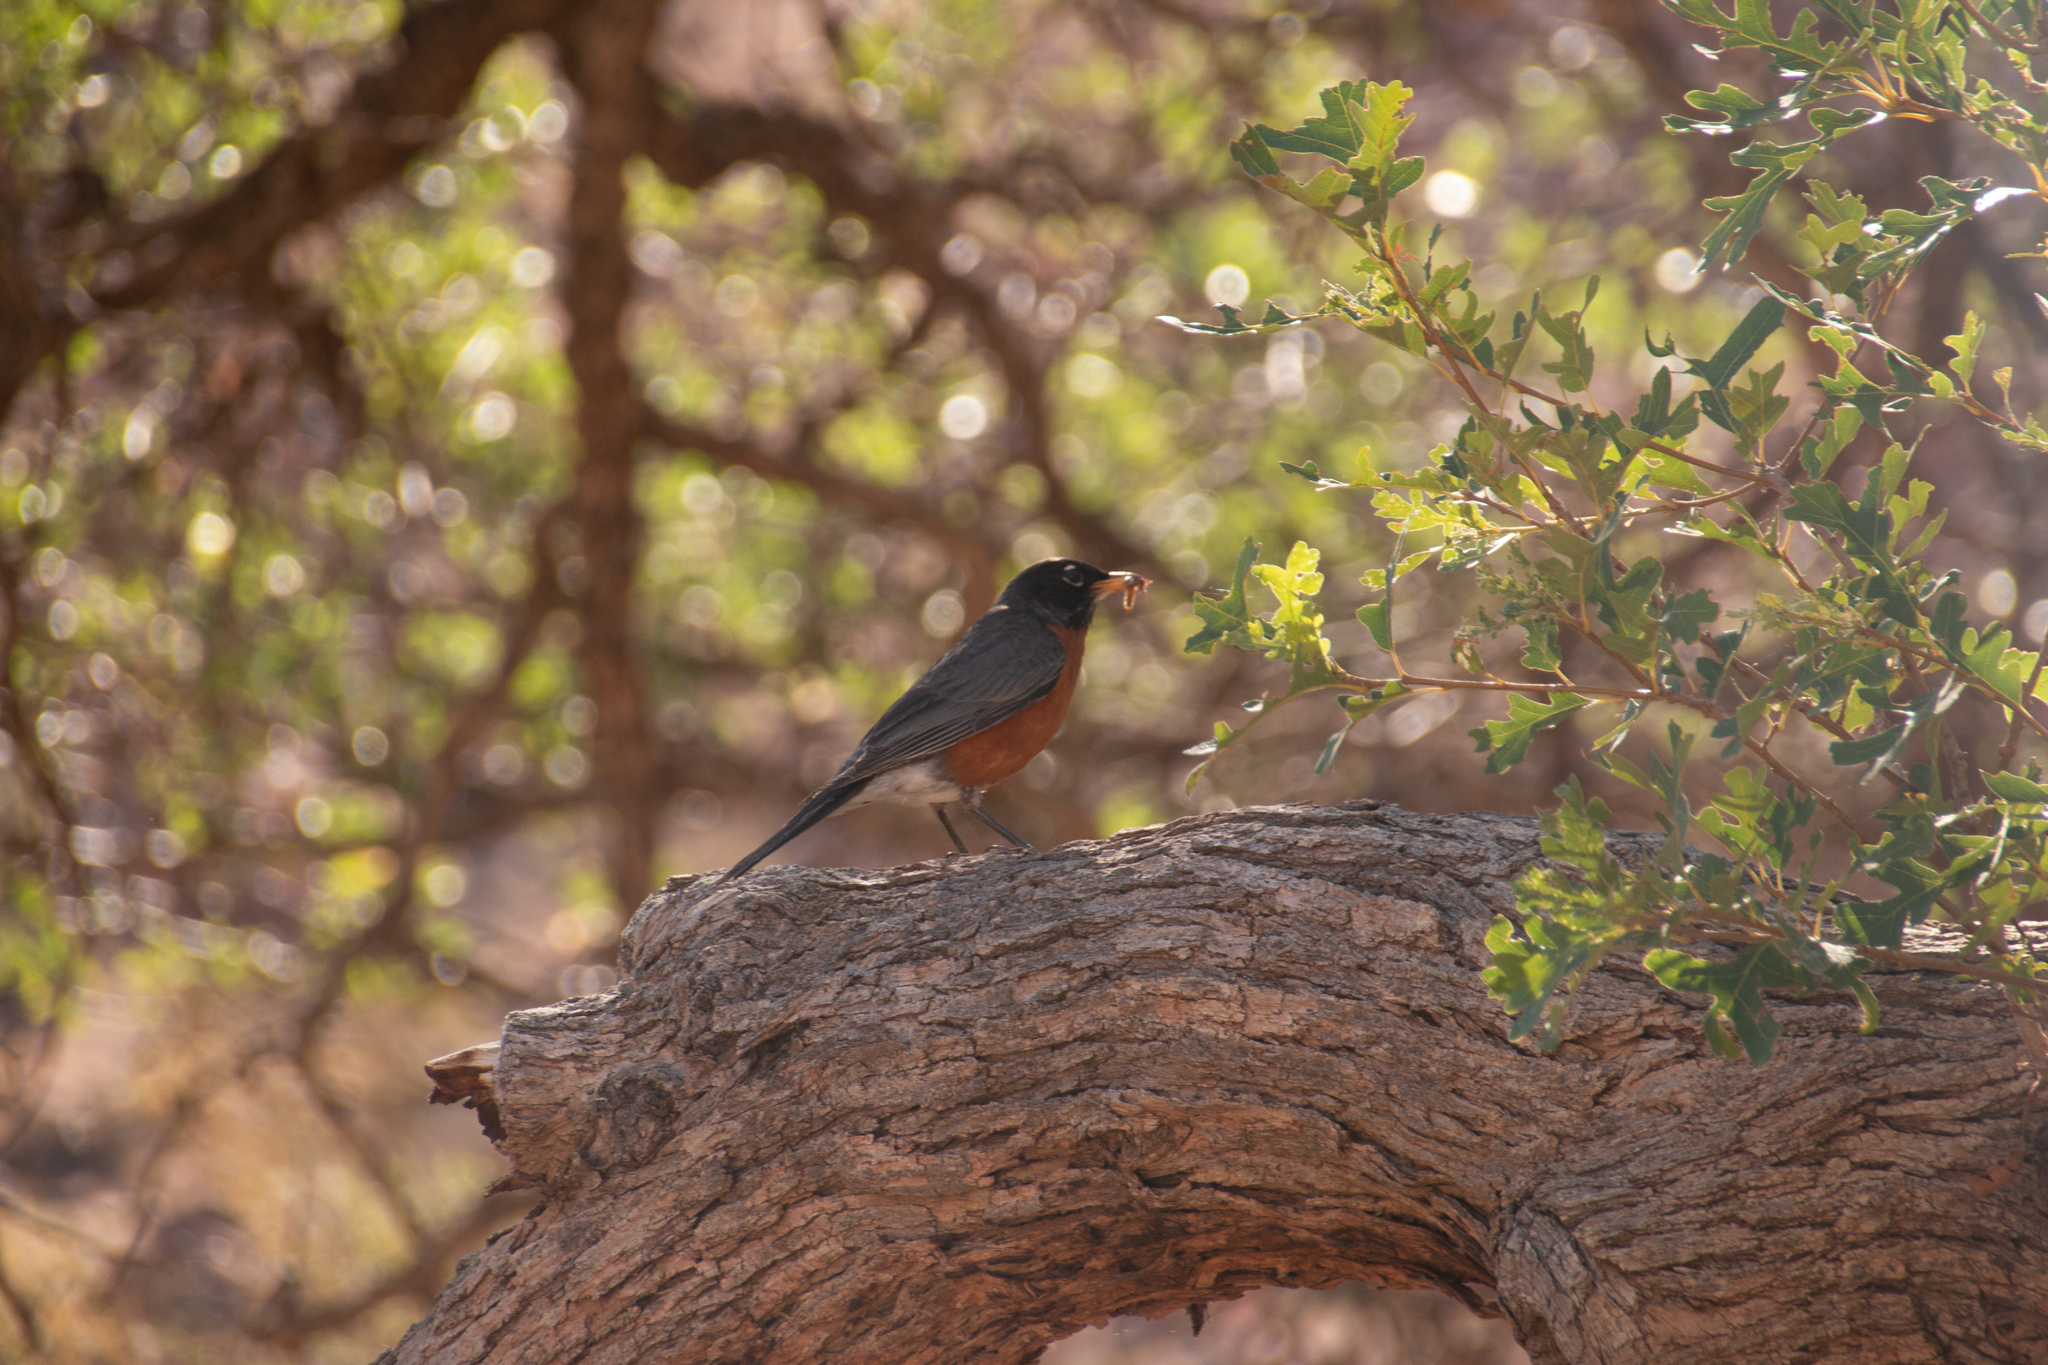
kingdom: Animalia
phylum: Chordata
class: Aves
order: Passeriformes
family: Turdidae
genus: Turdus
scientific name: Turdus migratorius
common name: American robin
